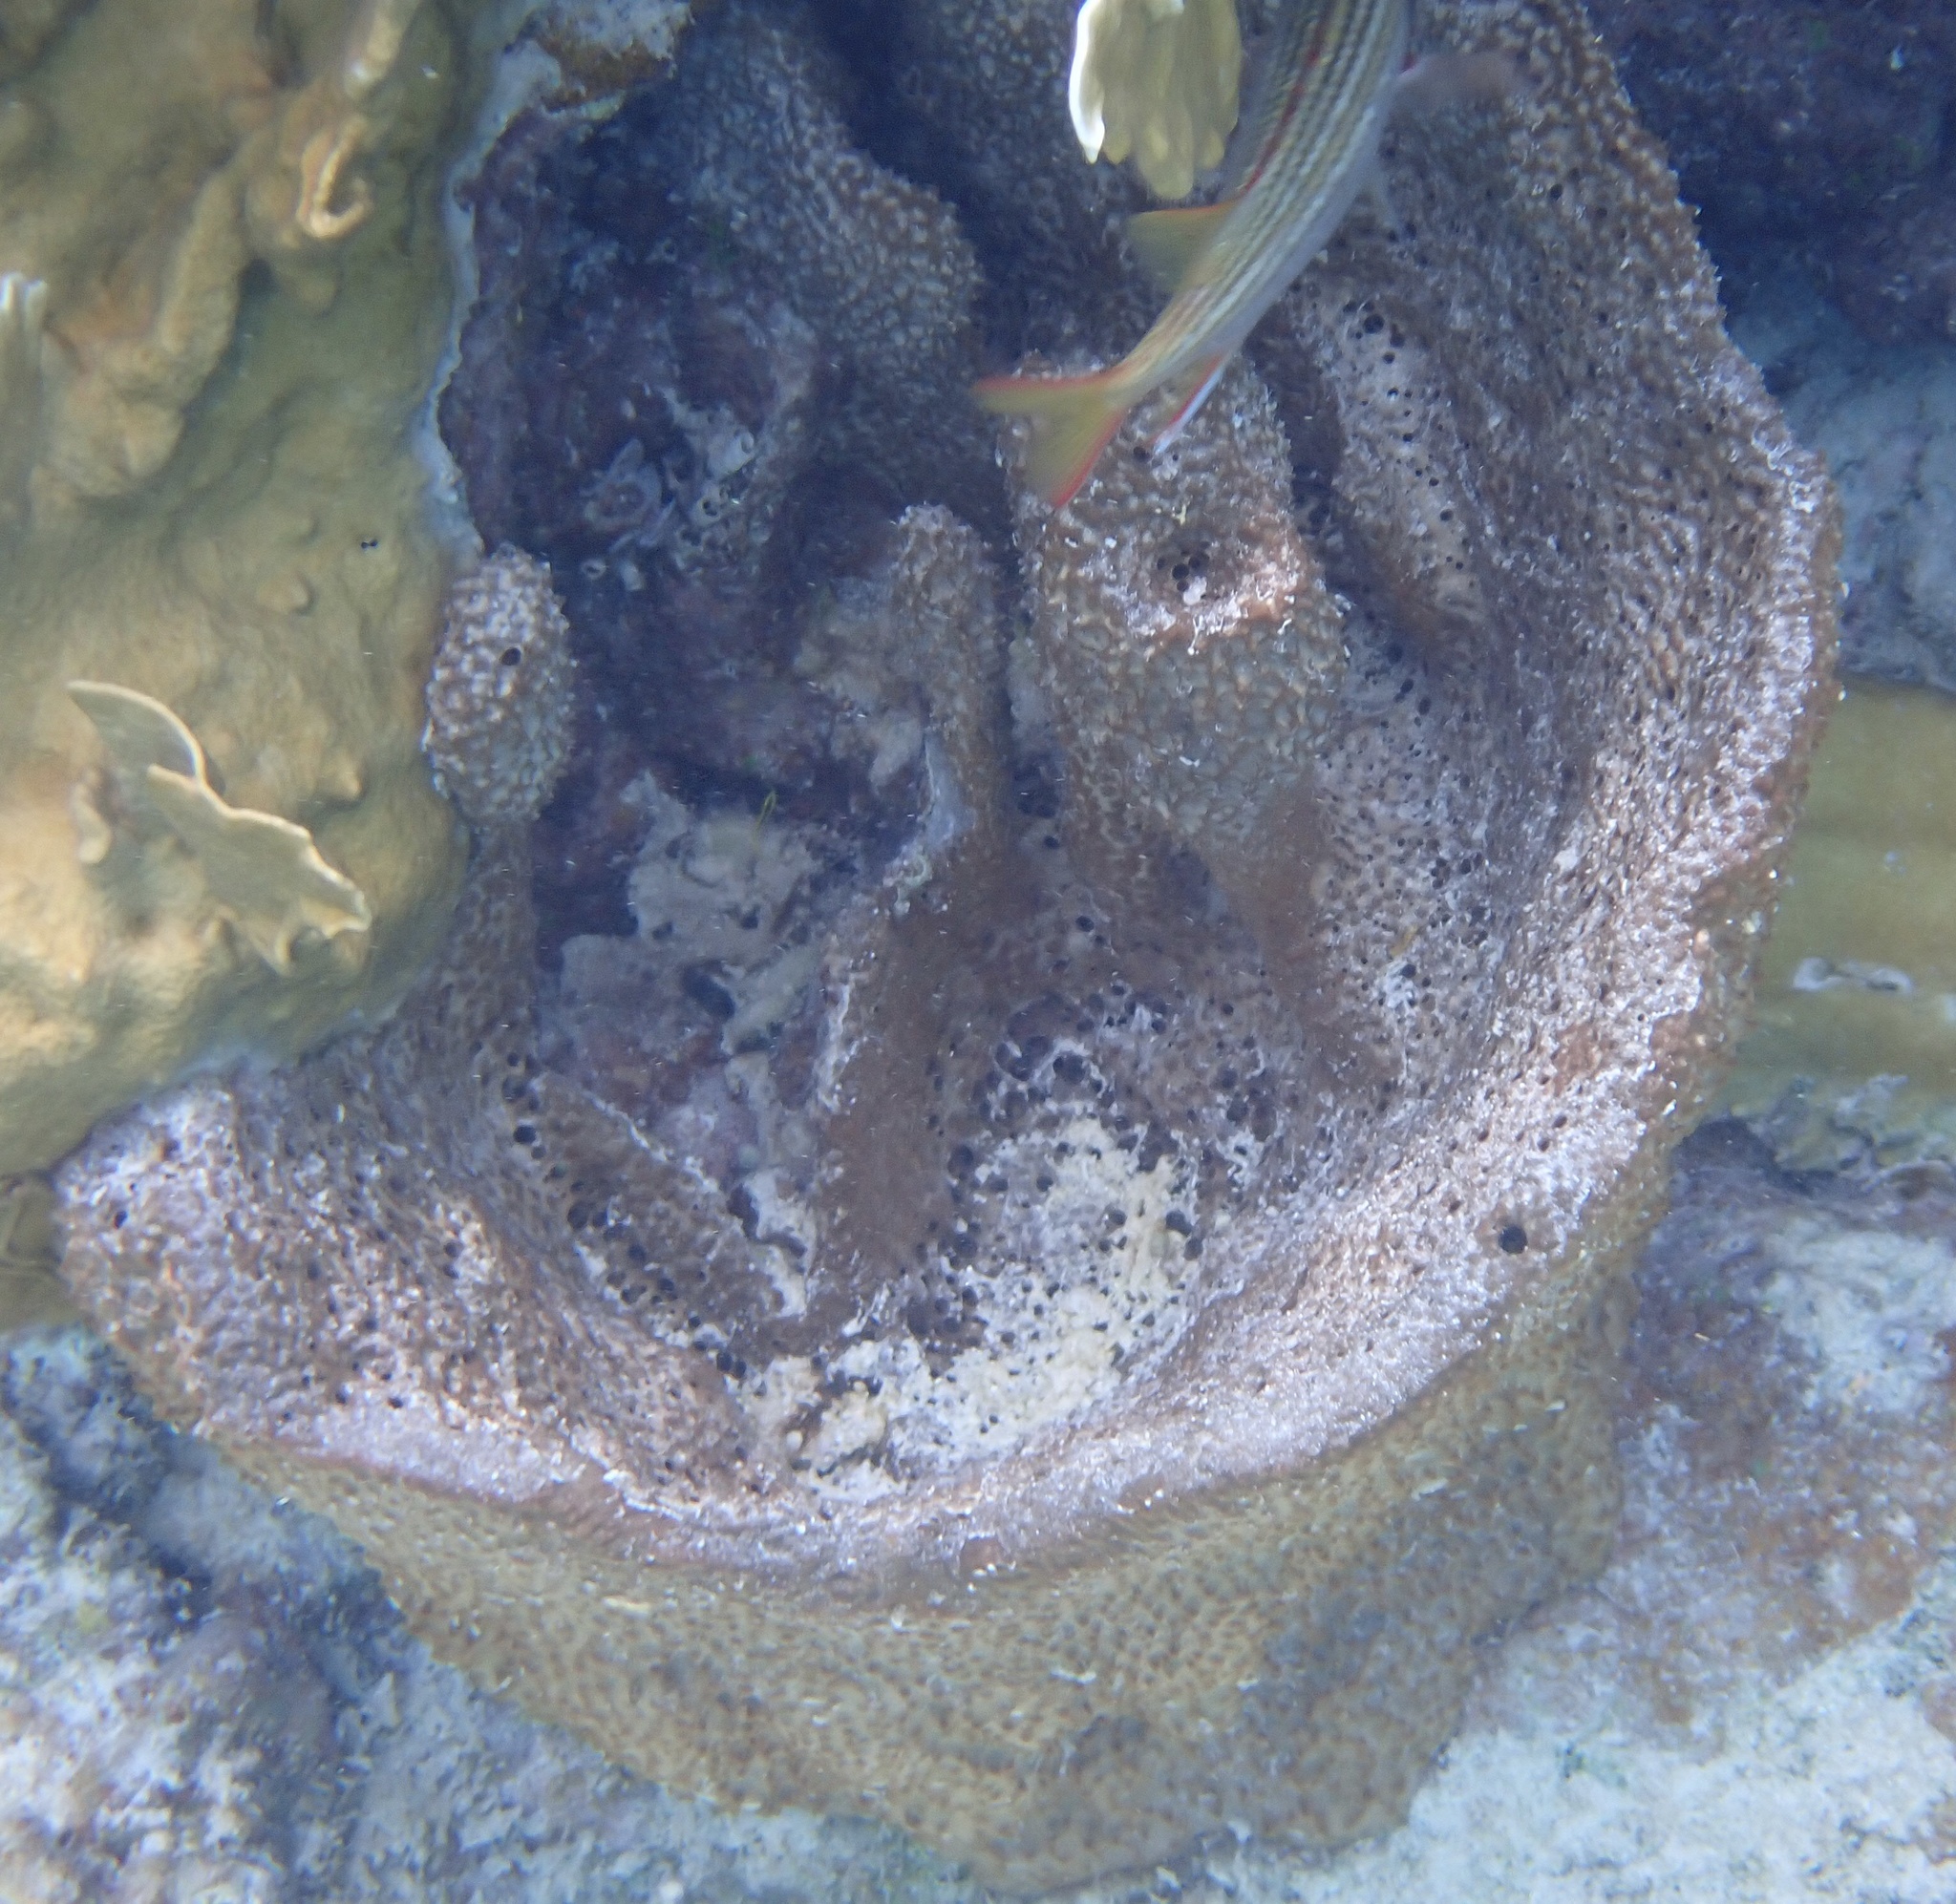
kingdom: Animalia
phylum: Porifera
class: Demospongiae
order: Dictyoceratida
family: Irciniidae
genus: Ircinia
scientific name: Ircinia campana
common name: Vase sponge
